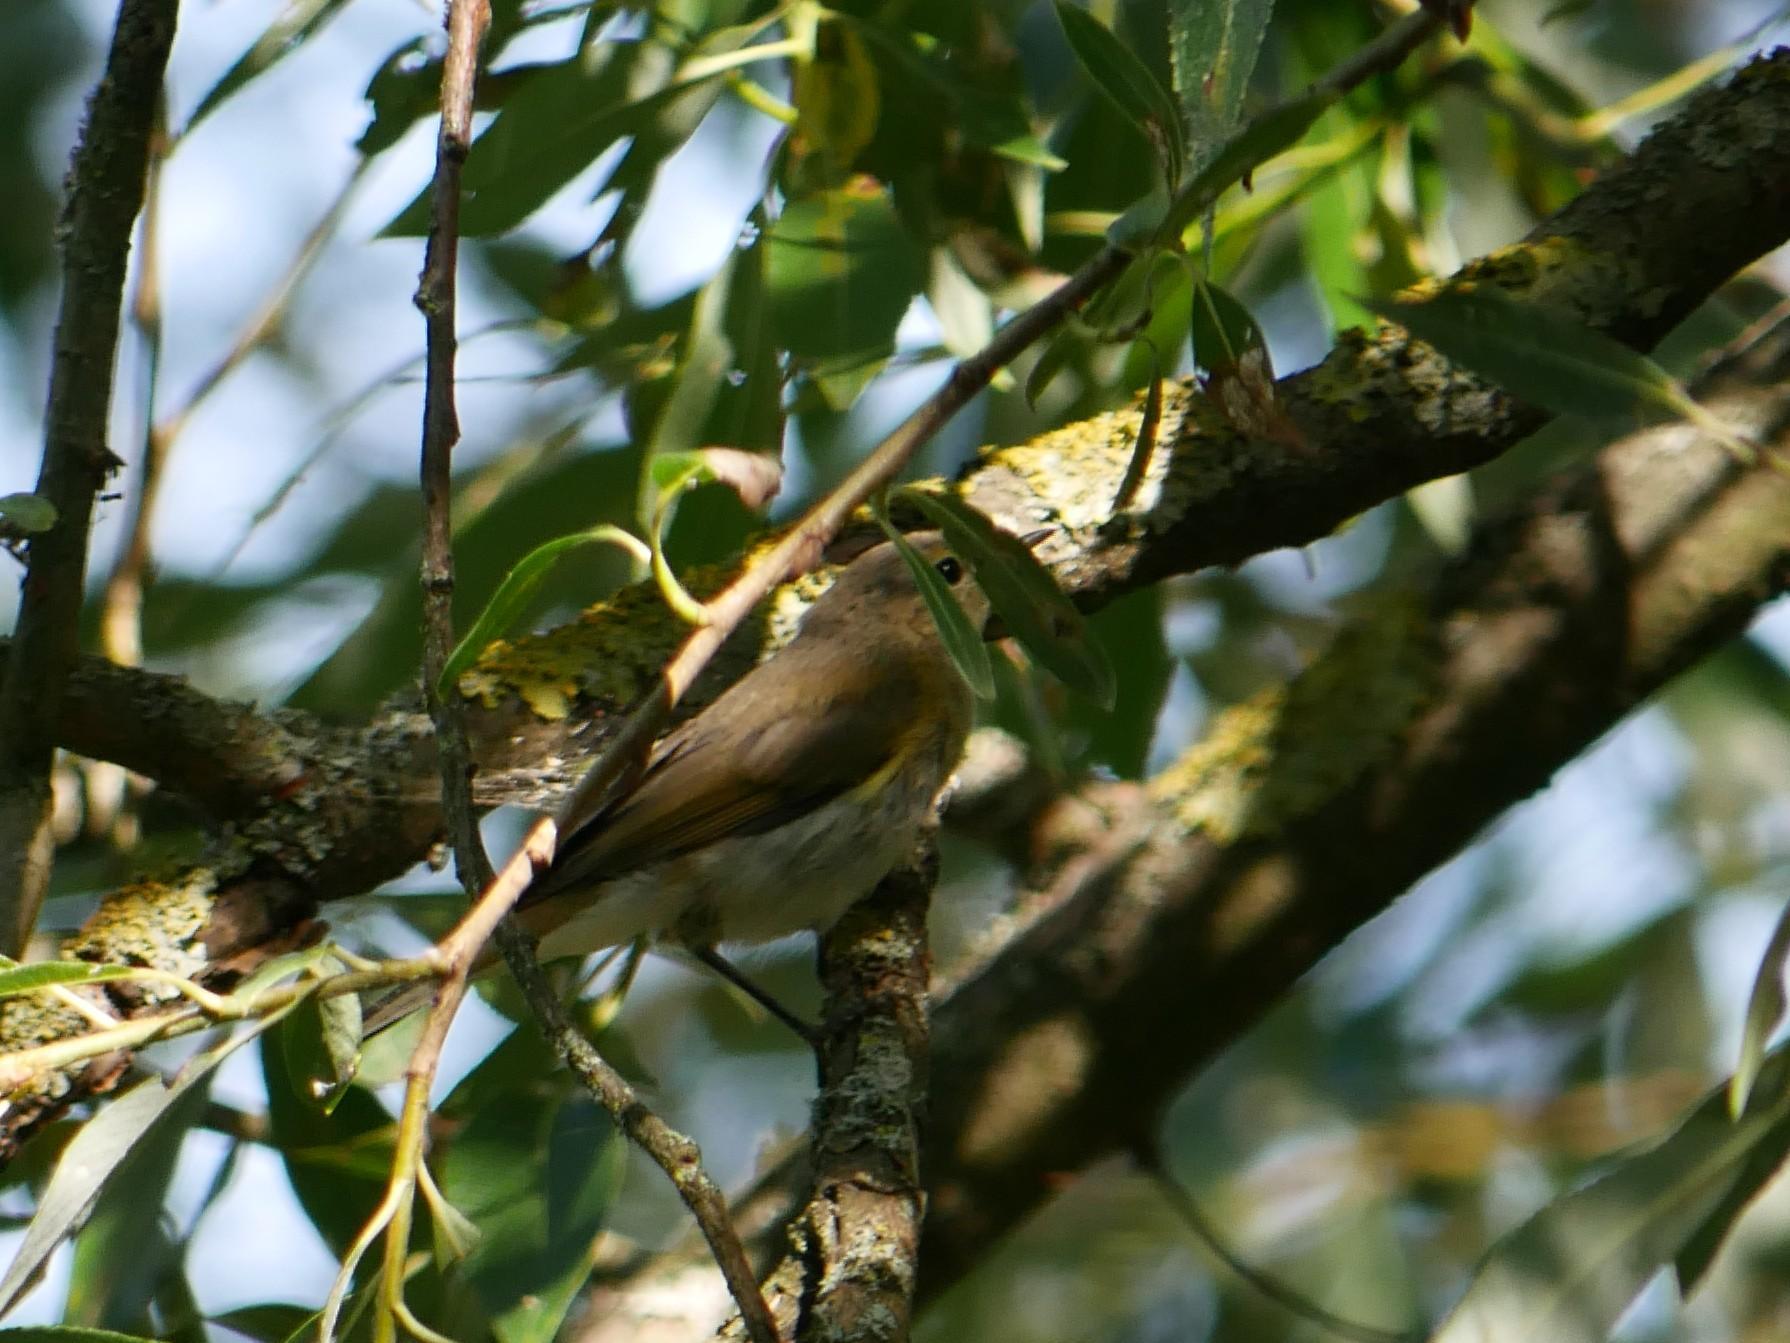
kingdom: Animalia
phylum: Chordata
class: Aves
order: Passeriformes
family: Phylloscopidae
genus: Phylloscopus
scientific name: Phylloscopus collybita
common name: Common chiffchaff
